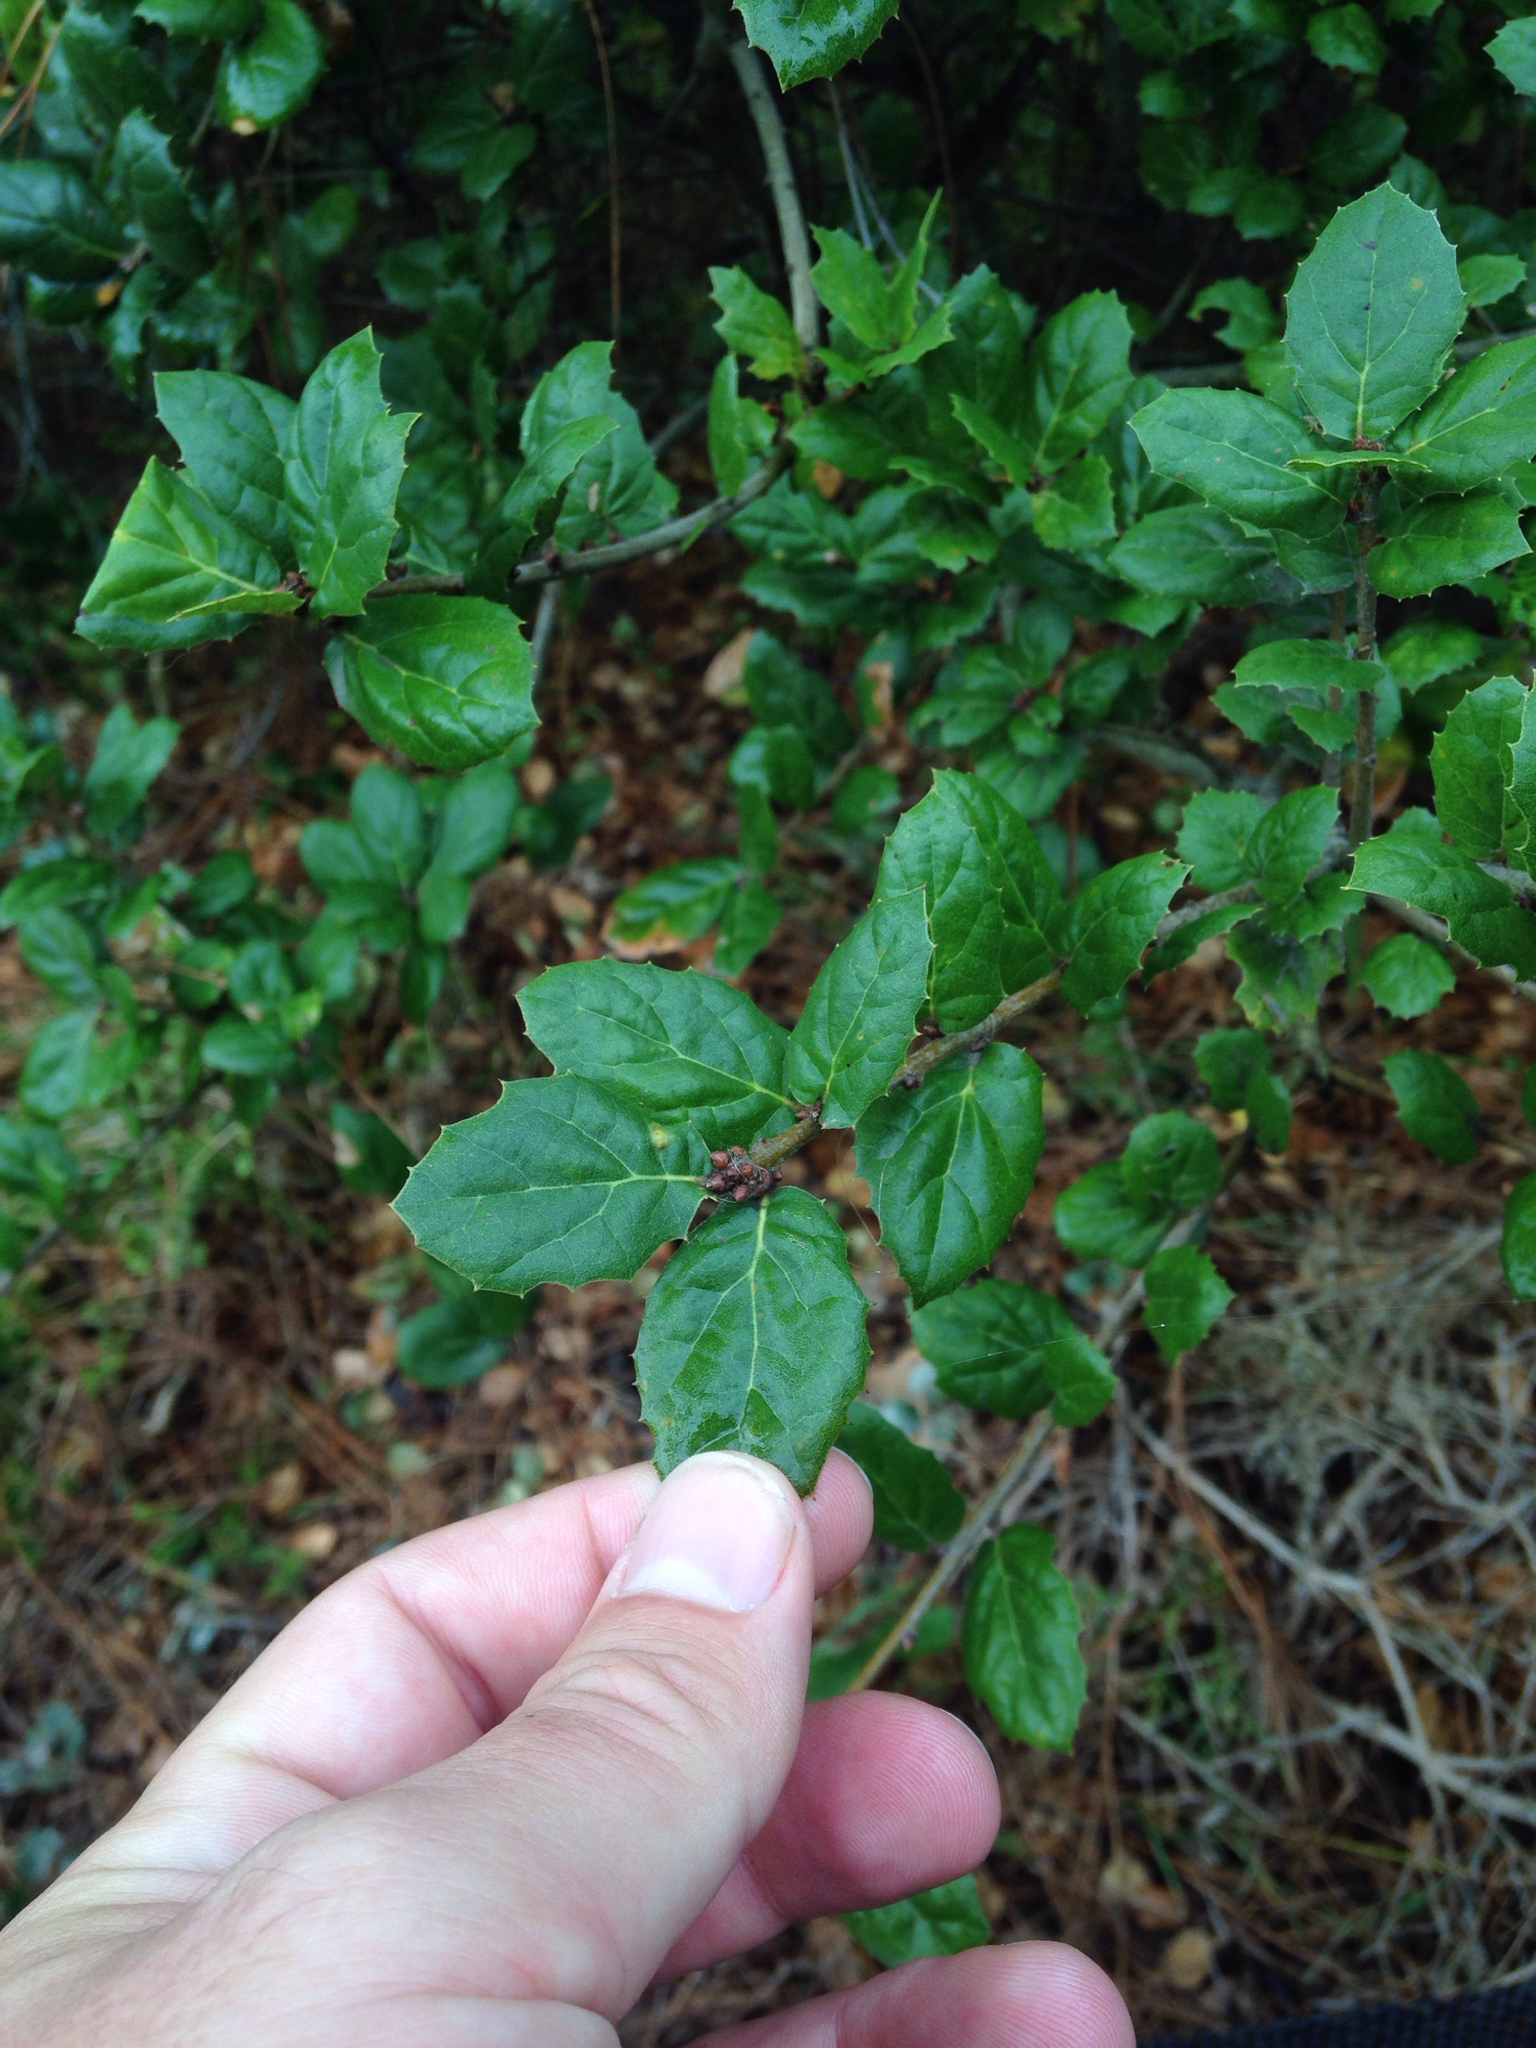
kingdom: Plantae
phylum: Tracheophyta
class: Magnoliopsida
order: Fagales
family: Fagaceae
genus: Quercus
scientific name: Quercus agrifolia
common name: California live oak
